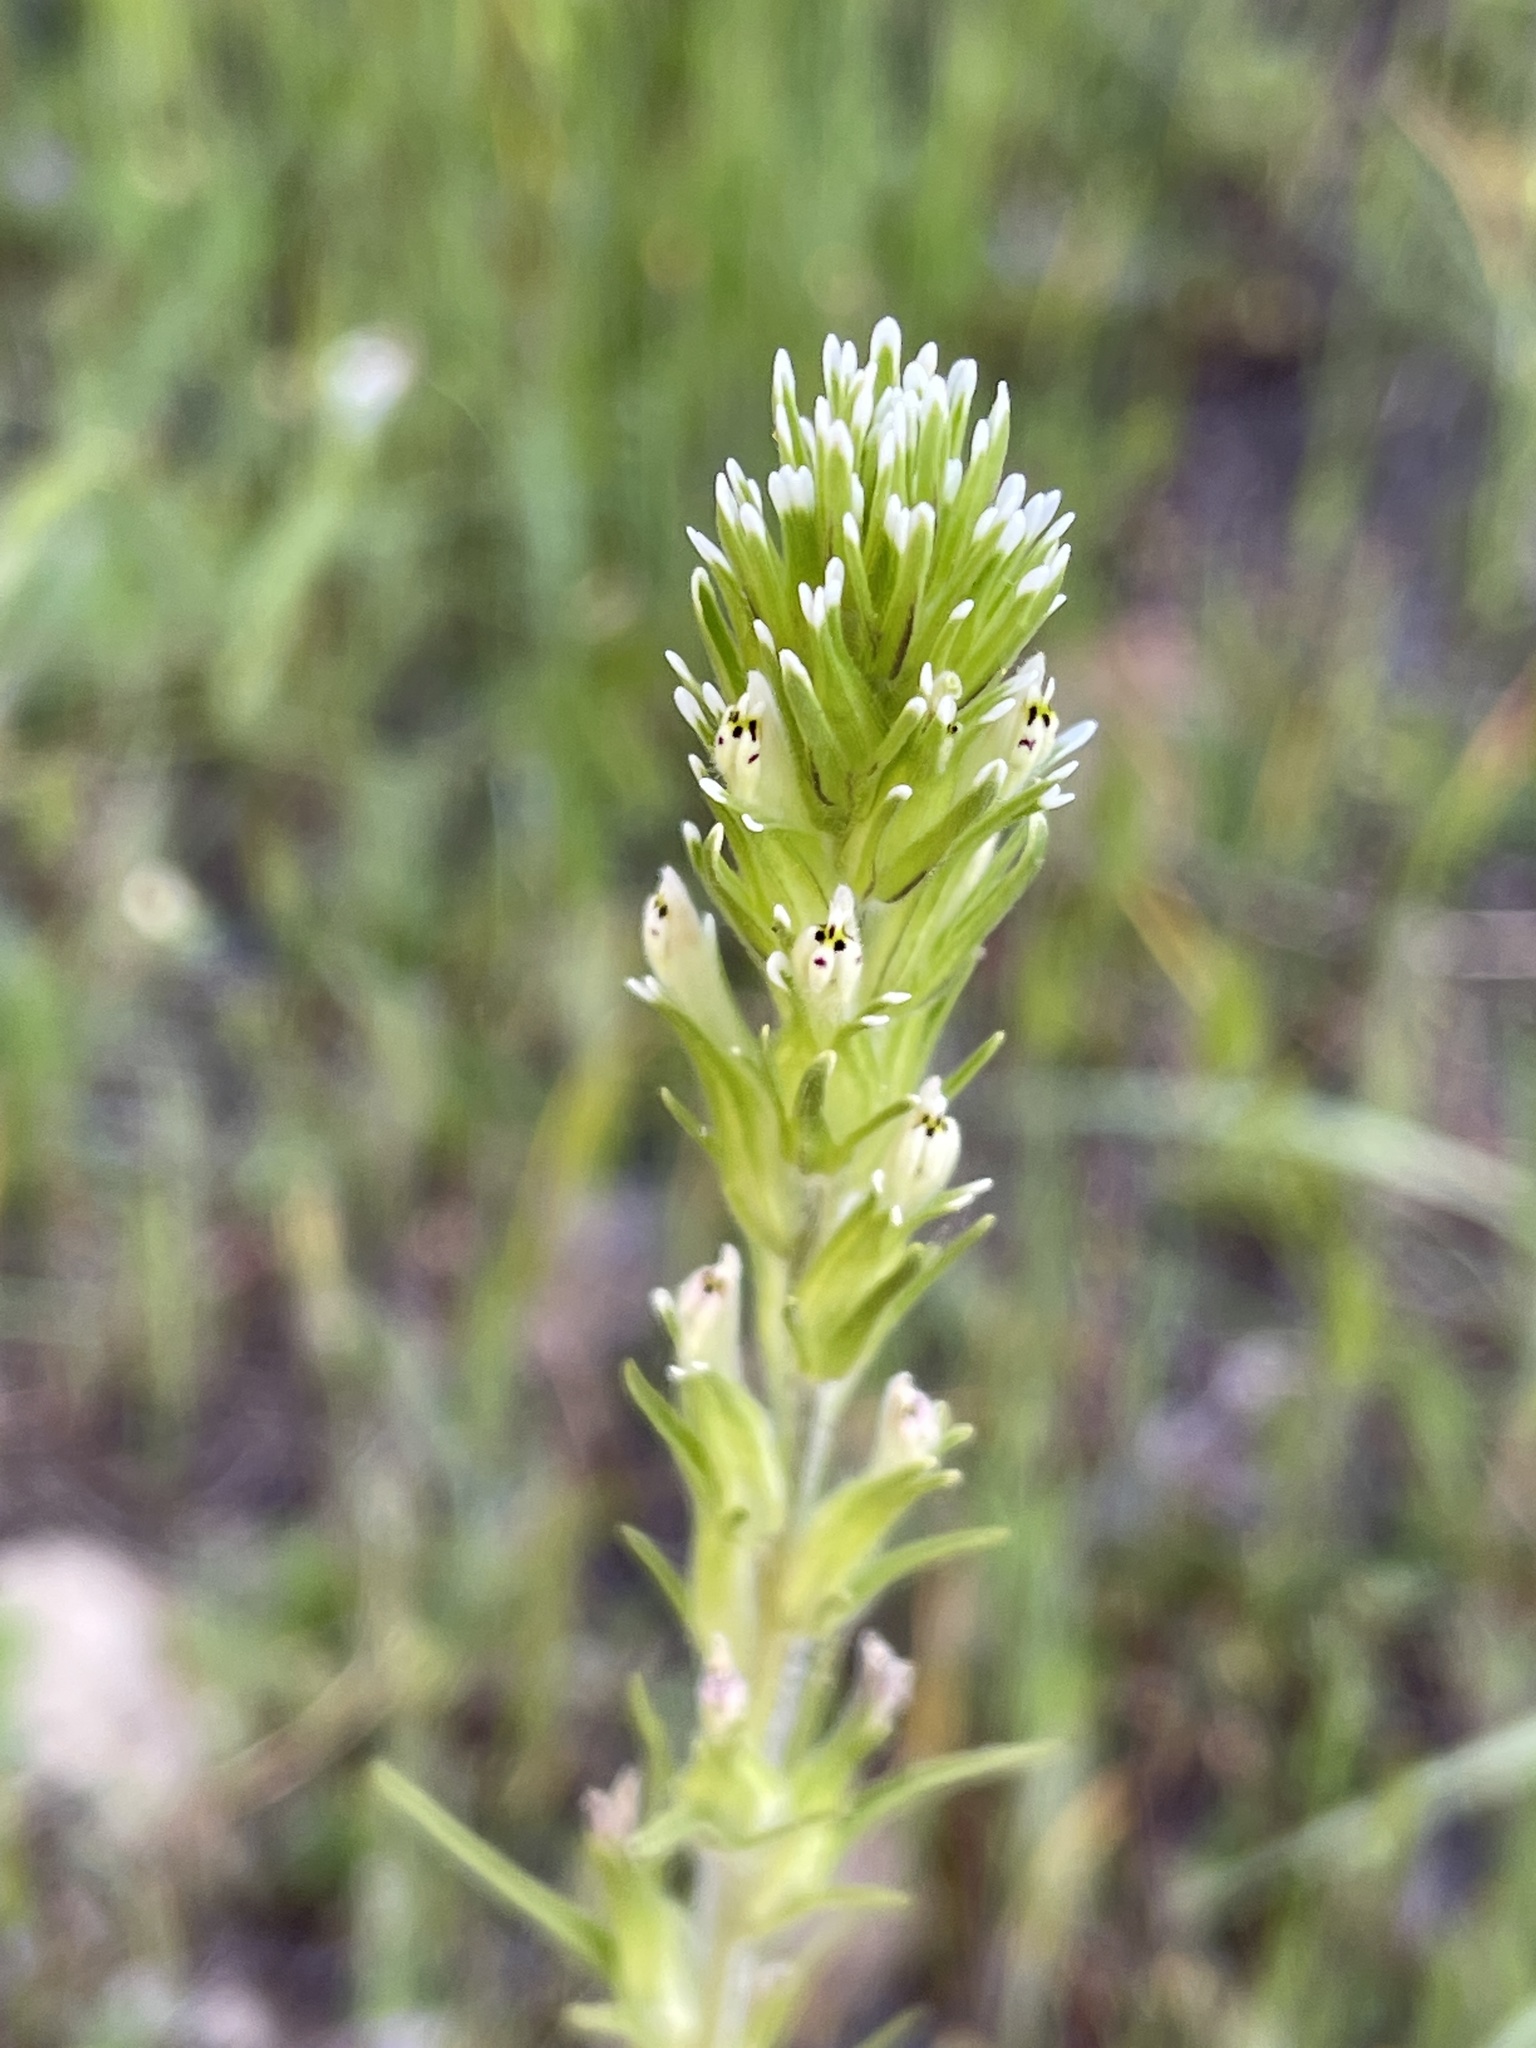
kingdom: Plantae
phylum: Tracheophyta
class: Magnoliopsida
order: Lamiales
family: Orobanchaceae
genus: Castilleja
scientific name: Castilleja attenuata
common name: Valley tassels
